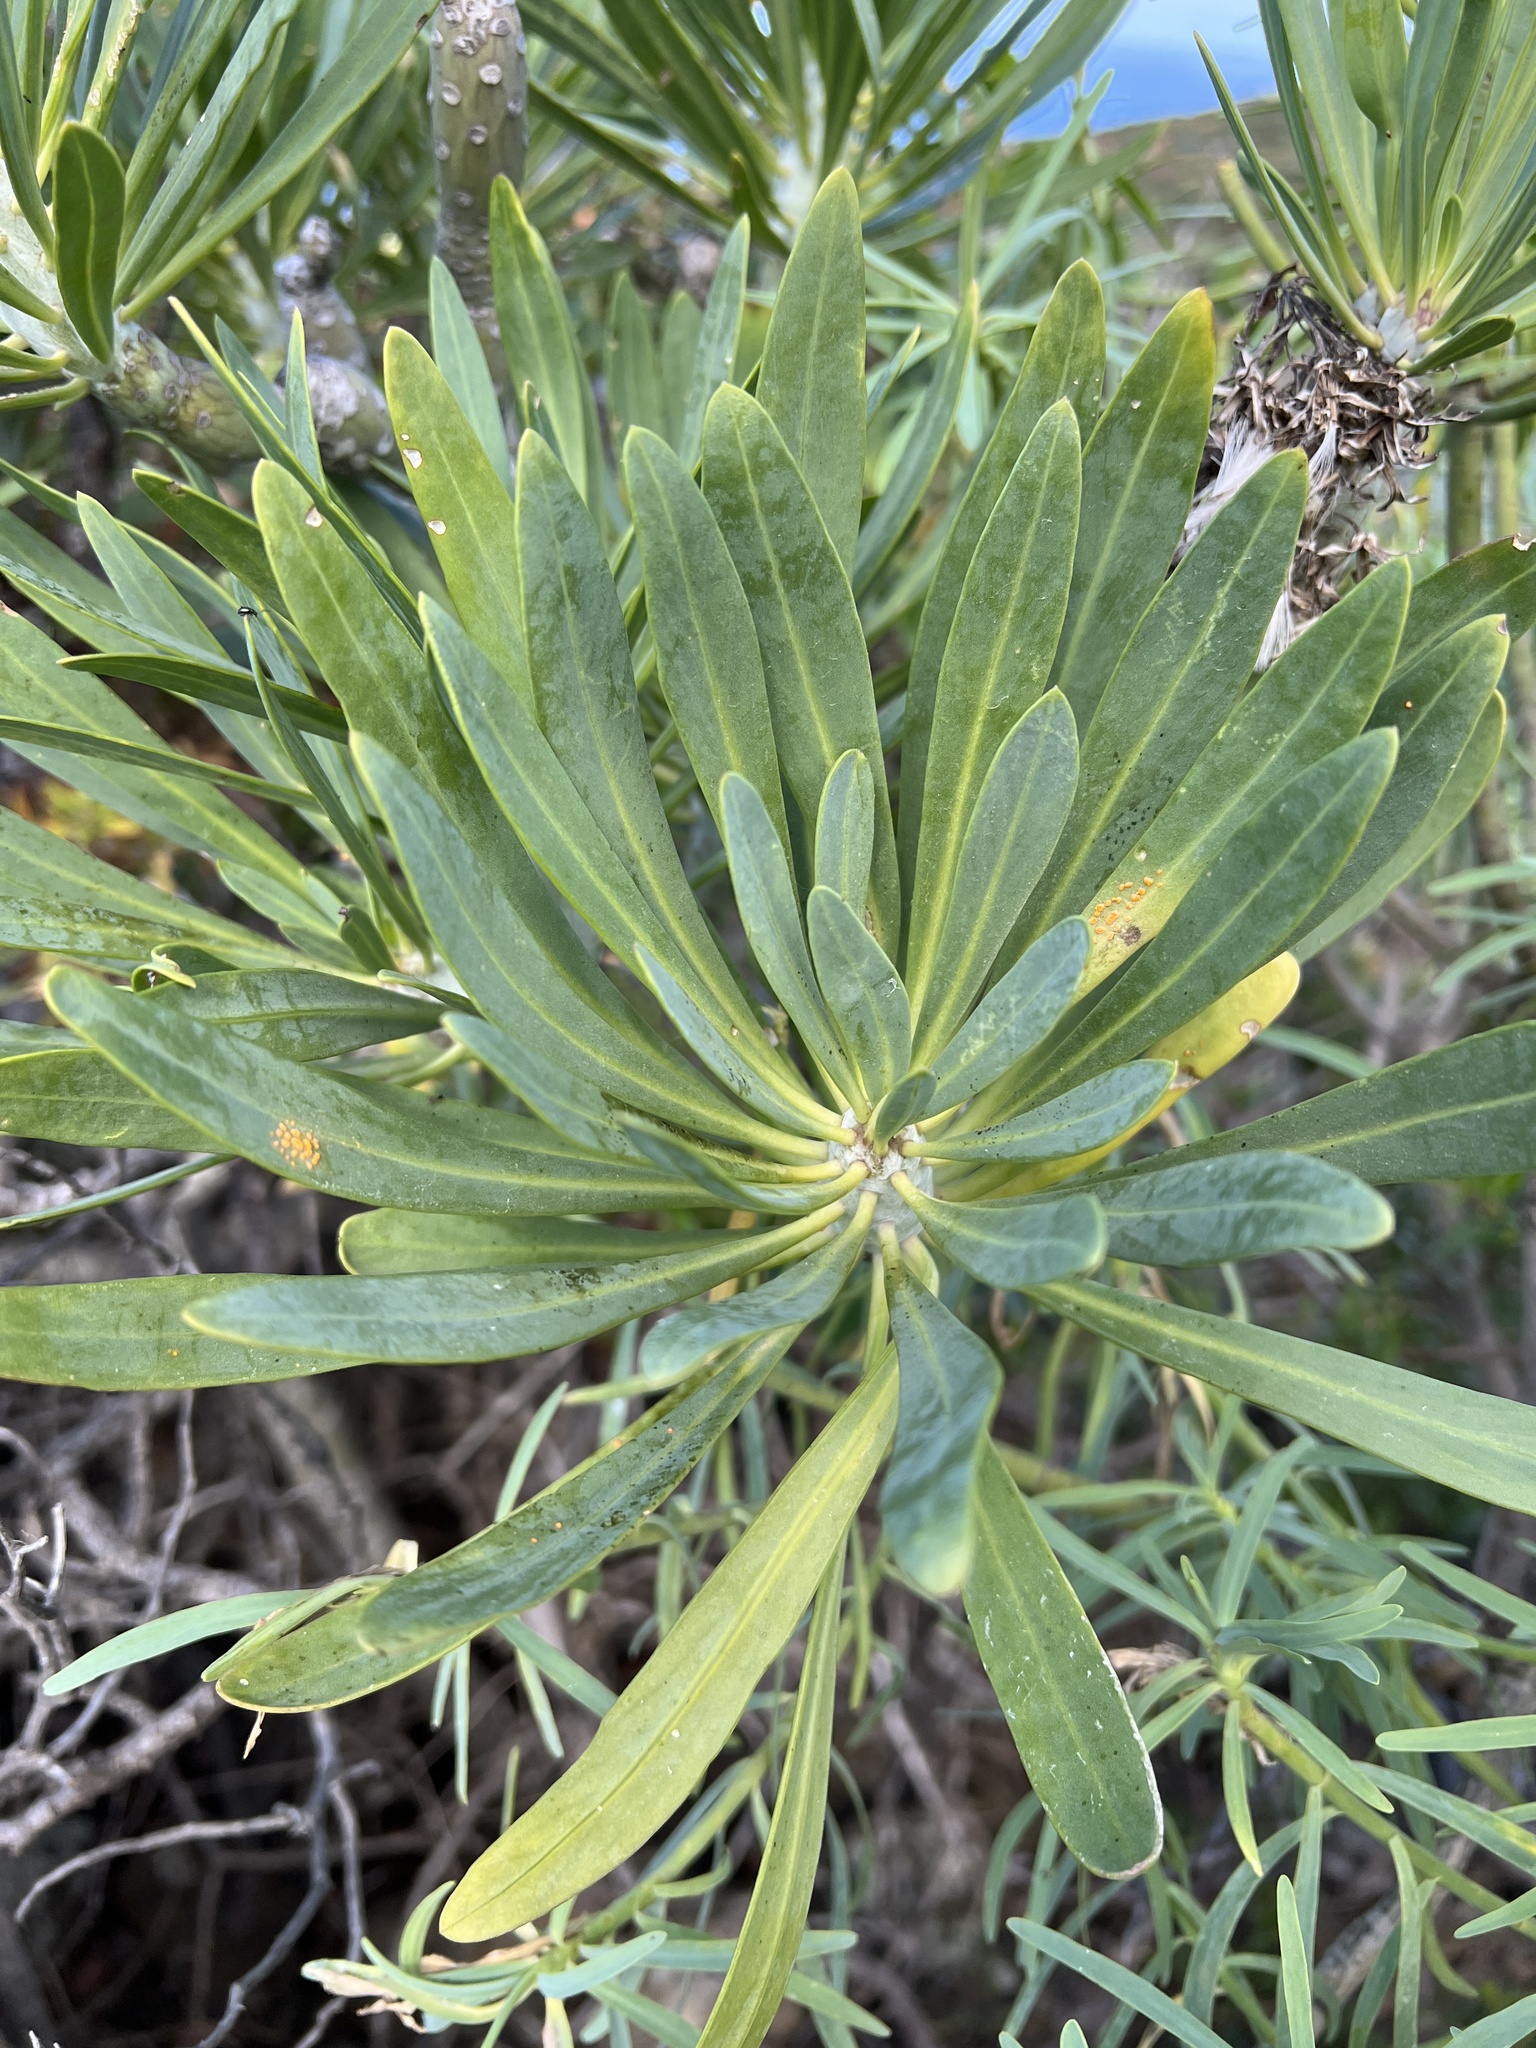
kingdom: Plantae
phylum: Tracheophyta
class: Magnoliopsida
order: Asterales
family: Asteraceae
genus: Kleinia
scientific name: Kleinia neriifolia
